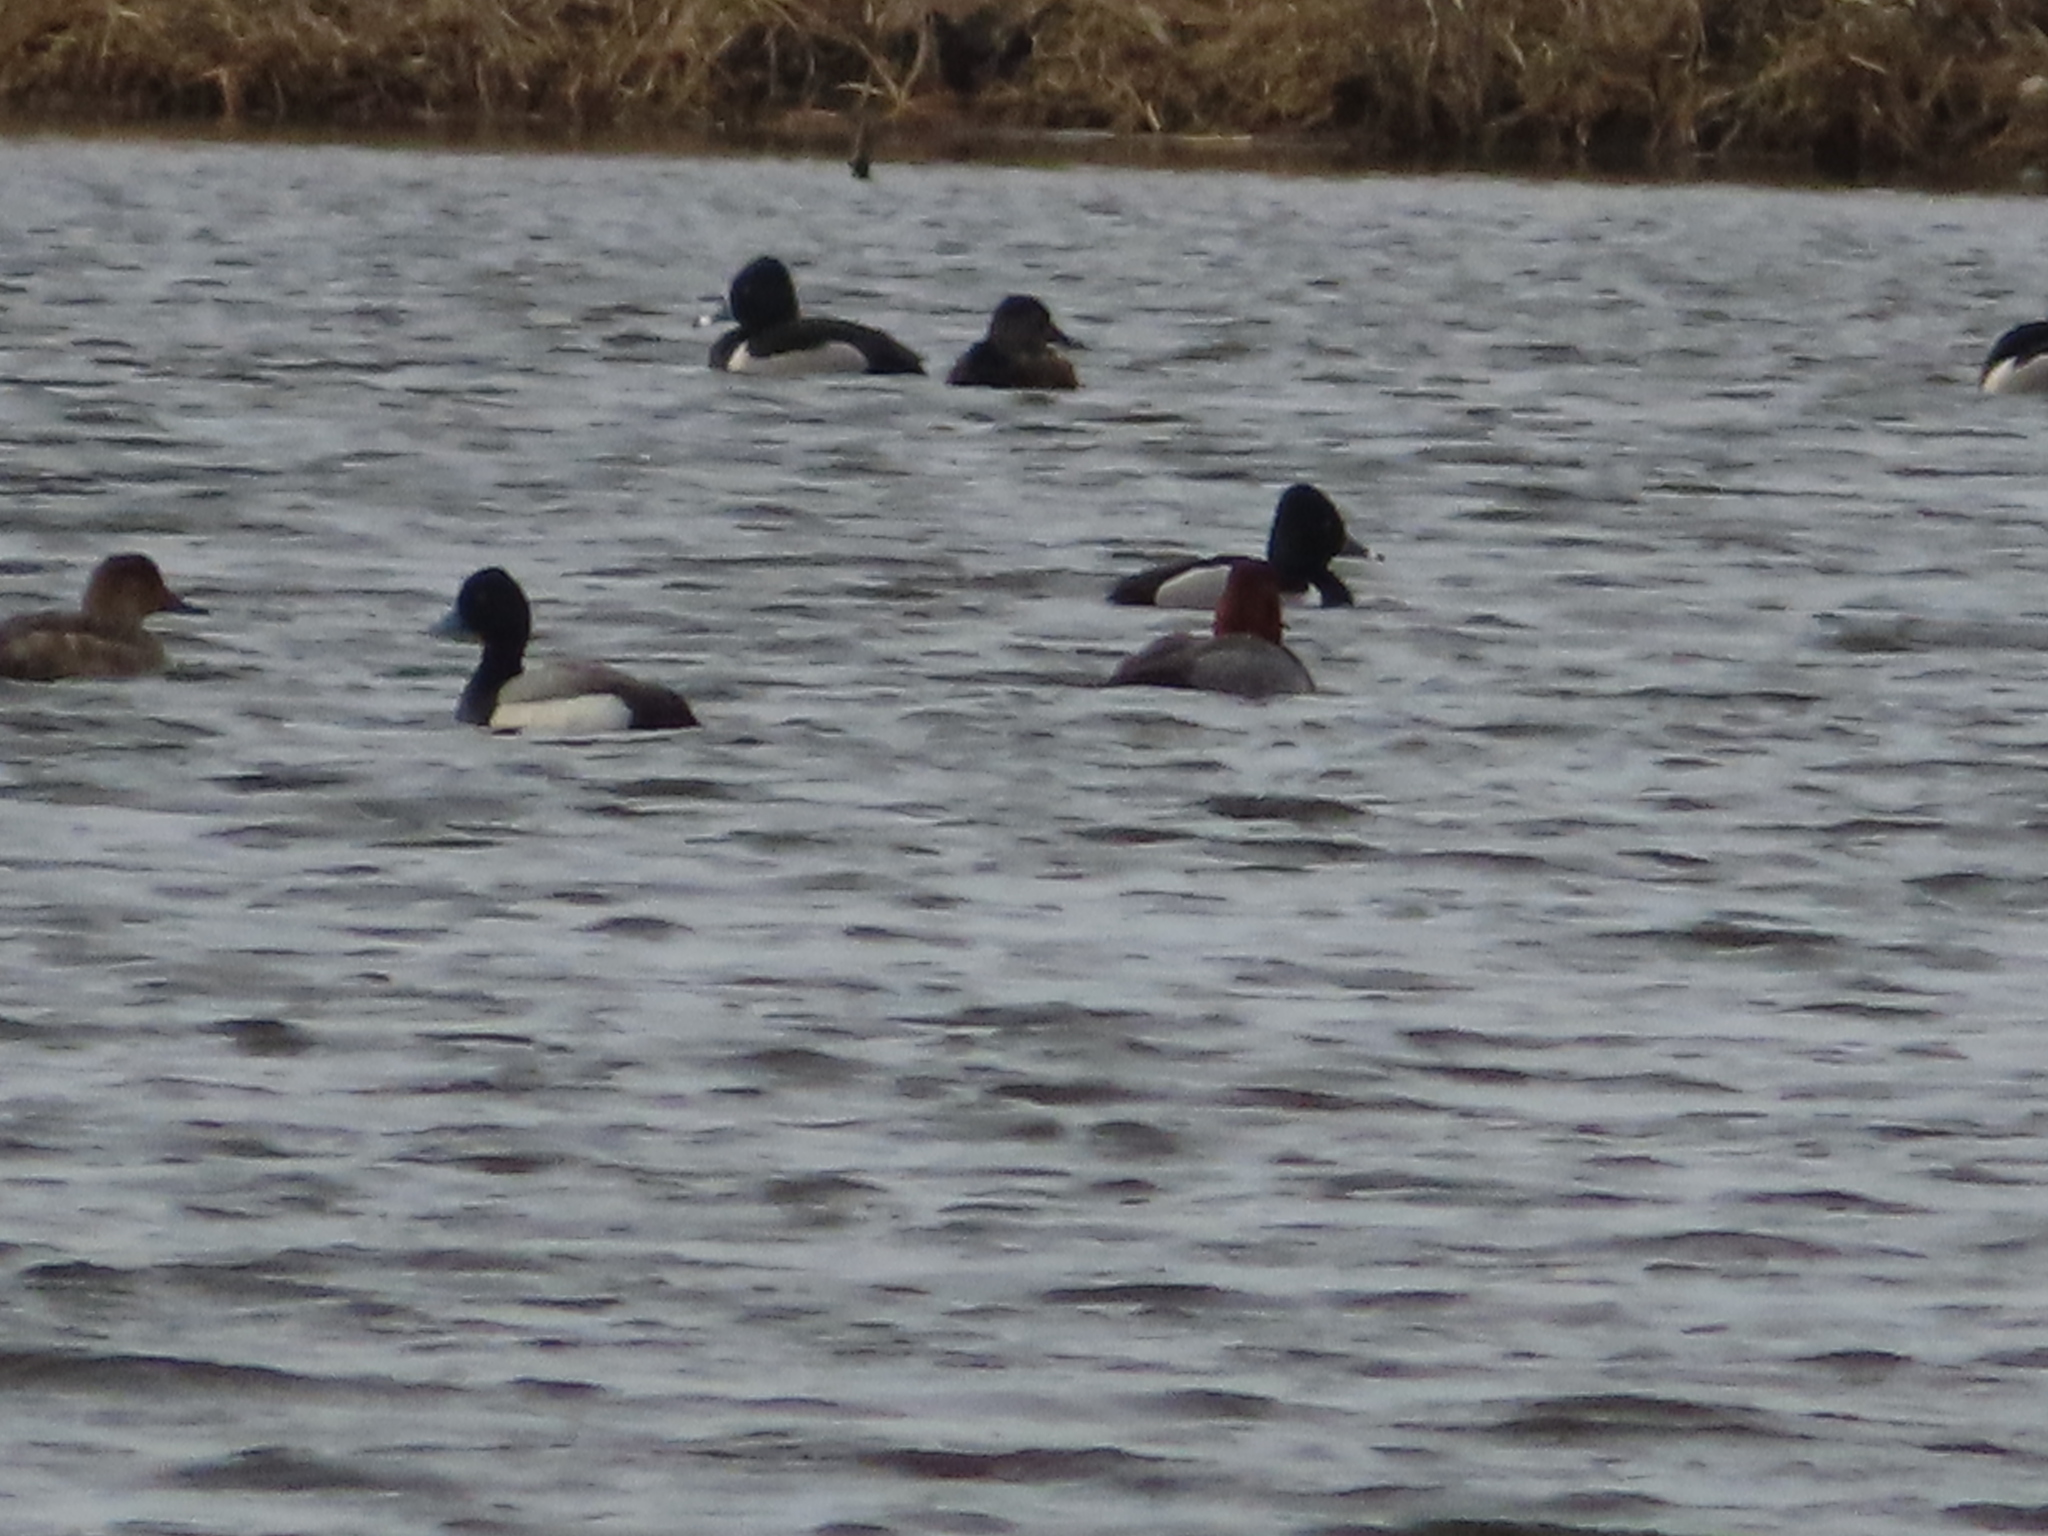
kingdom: Animalia
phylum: Chordata
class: Aves
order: Anseriformes
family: Anatidae
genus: Aythya
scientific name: Aythya collaris
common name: Ring-necked duck
